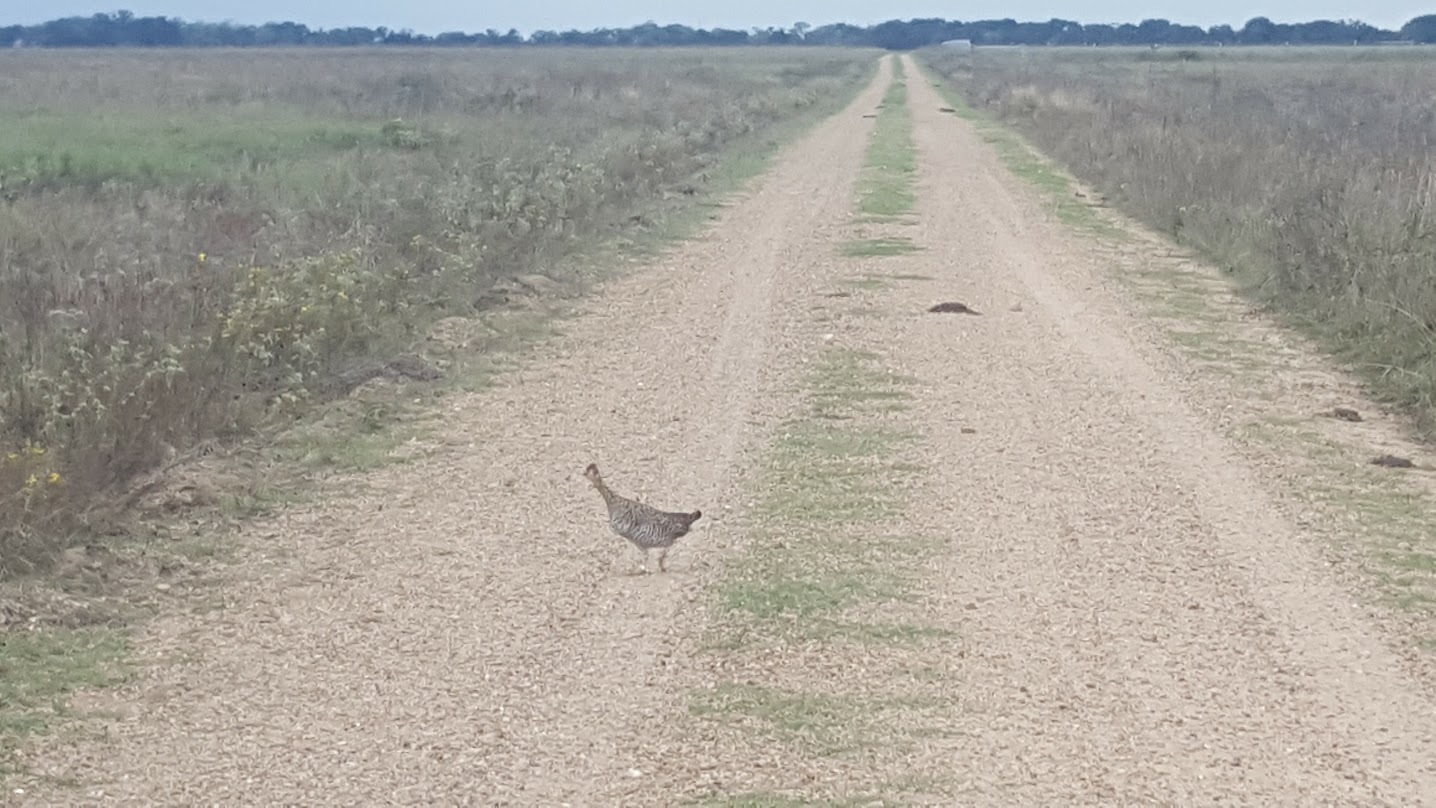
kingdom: Animalia
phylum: Chordata
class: Aves
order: Galliformes
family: Phasianidae
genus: Tympanuchus
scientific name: Tympanuchus cupido
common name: Greater prairie chicken
